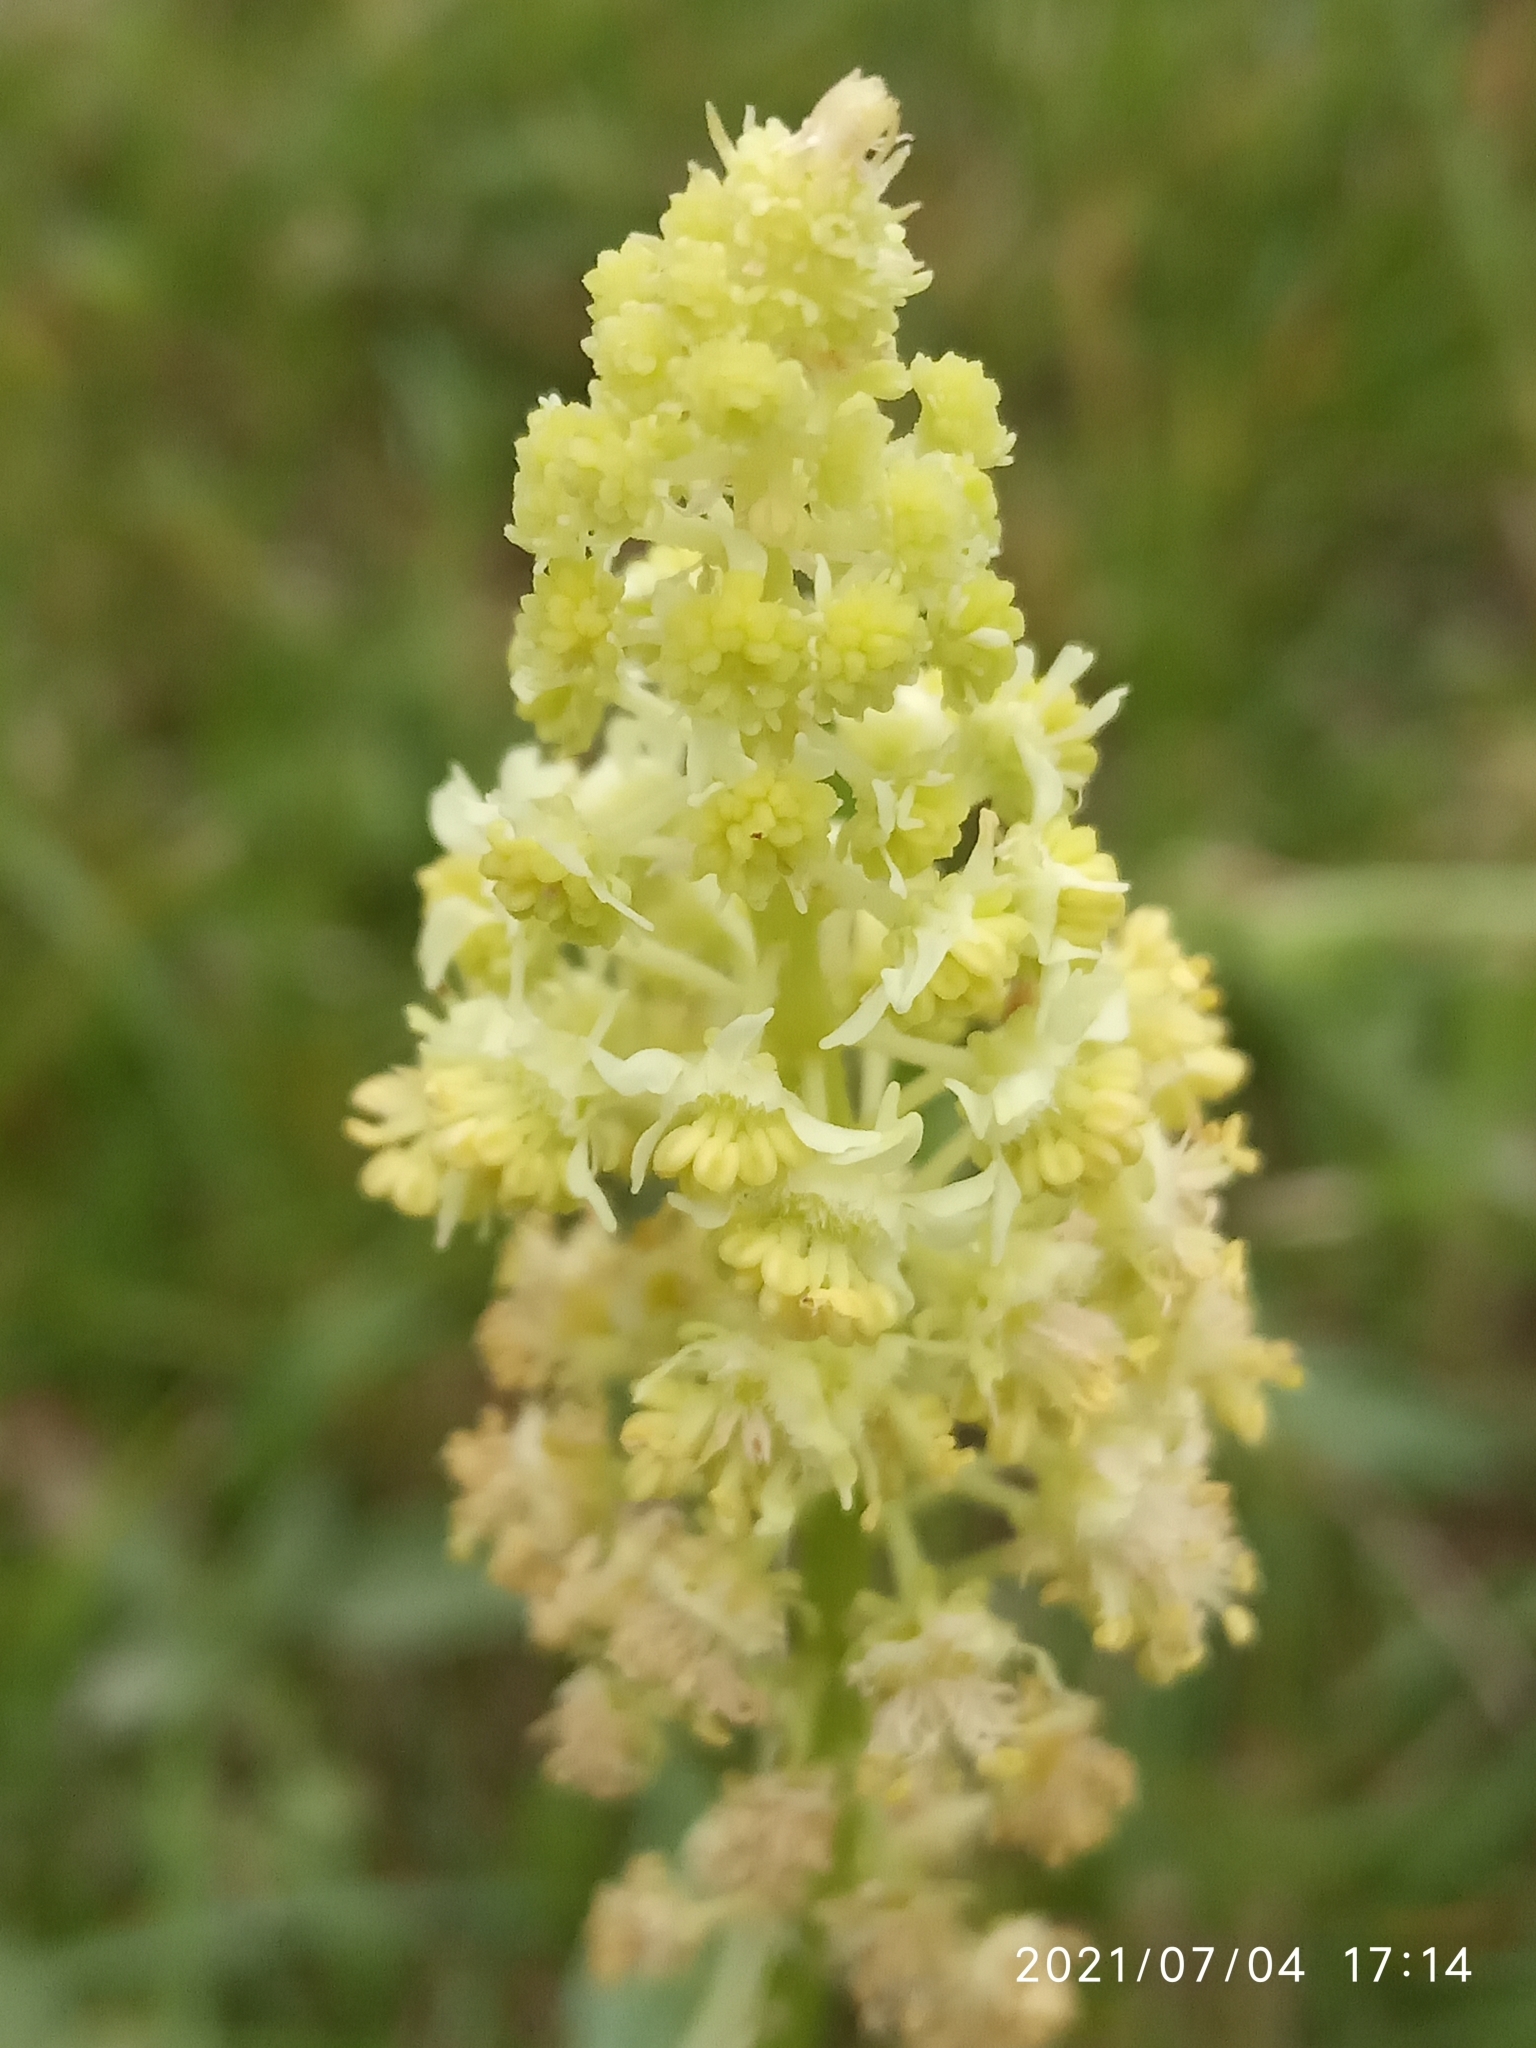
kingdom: Plantae
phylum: Tracheophyta
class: Magnoliopsida
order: Brassicales
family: Resedaceae
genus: Reseda
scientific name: Reseda lutea
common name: Wild mignonette
